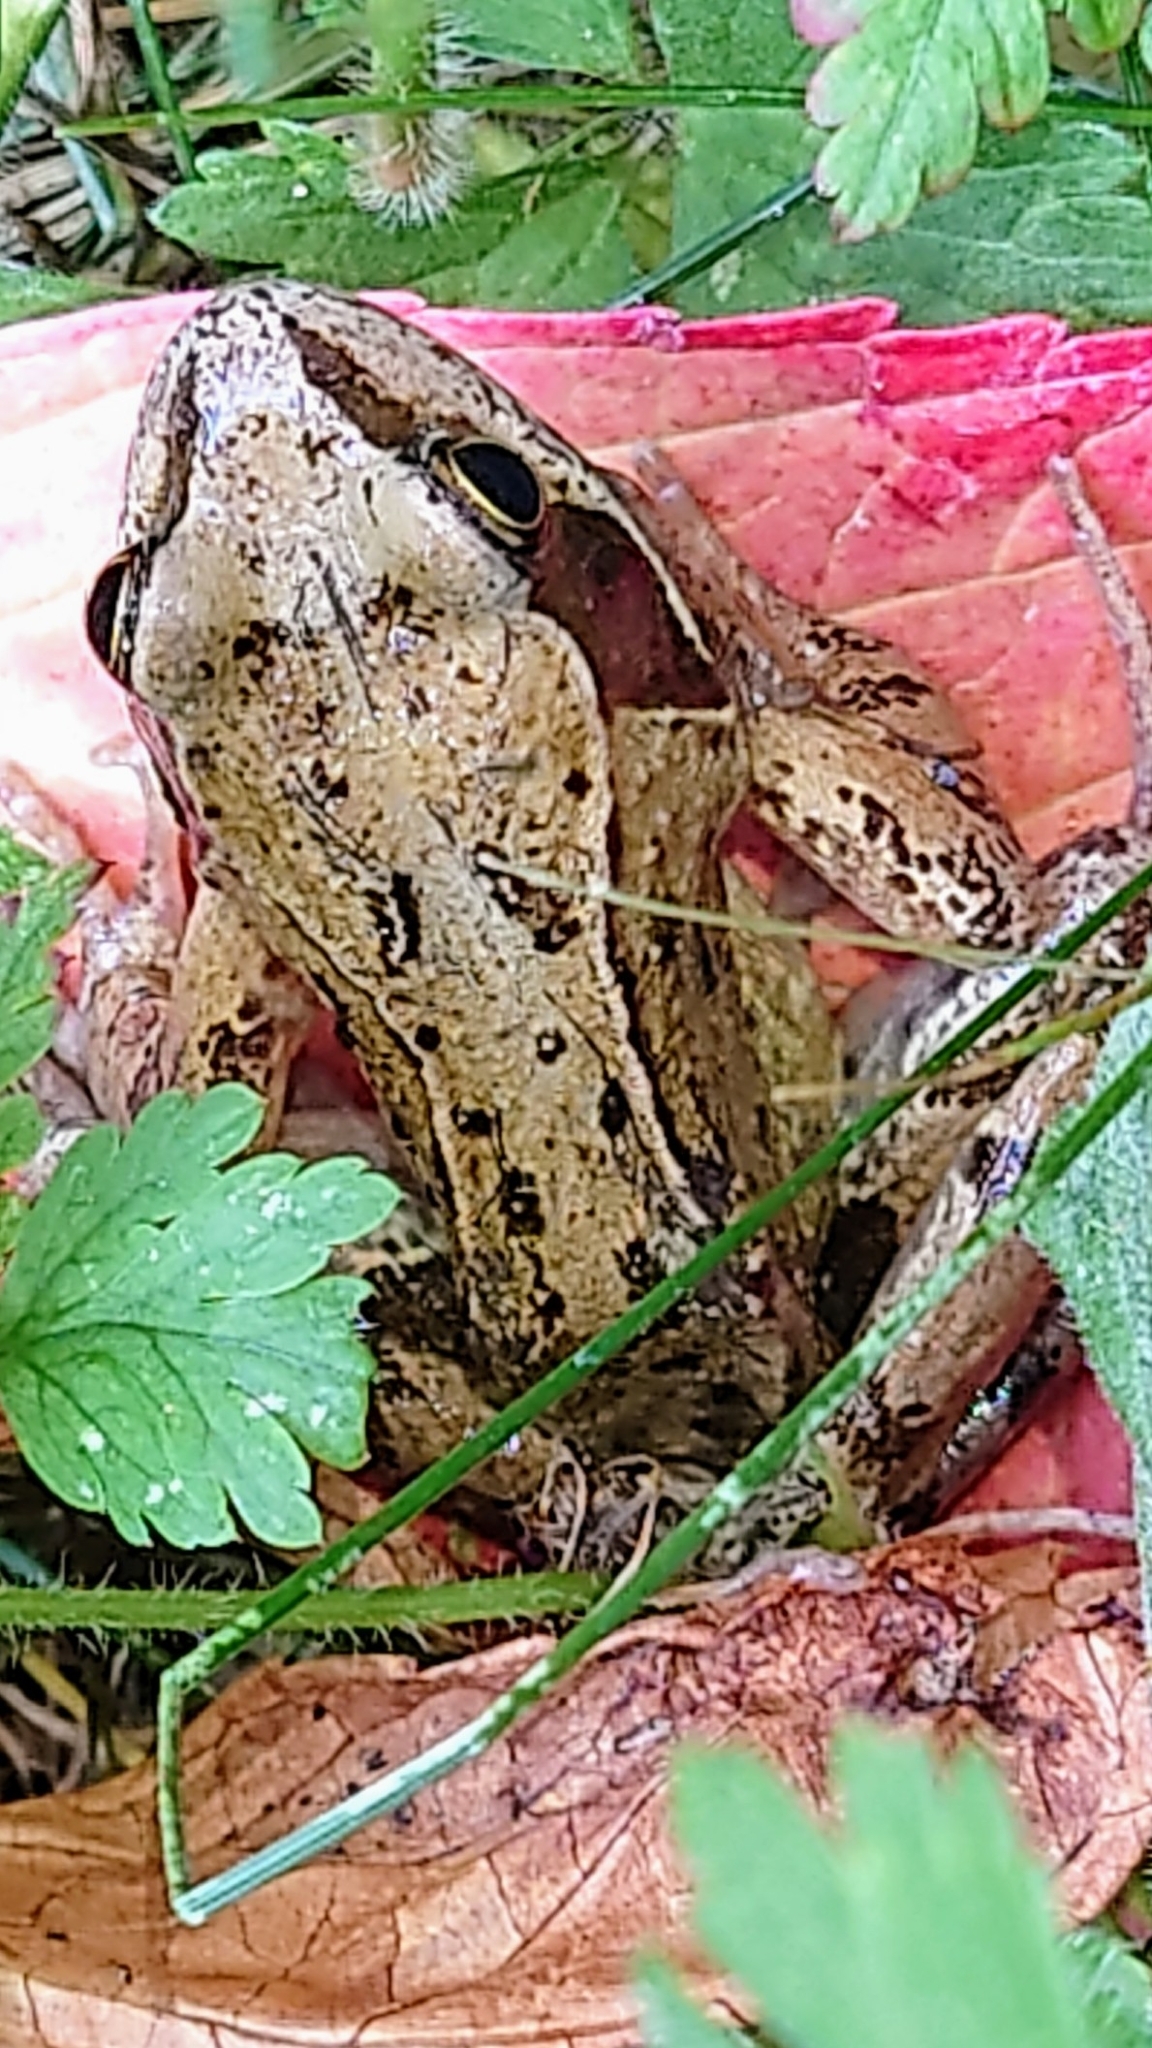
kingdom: Animalia
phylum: Chordata
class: Amphibia
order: Anura
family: Ranidae
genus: Rana
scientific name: Rana temporaria
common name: Common frog
